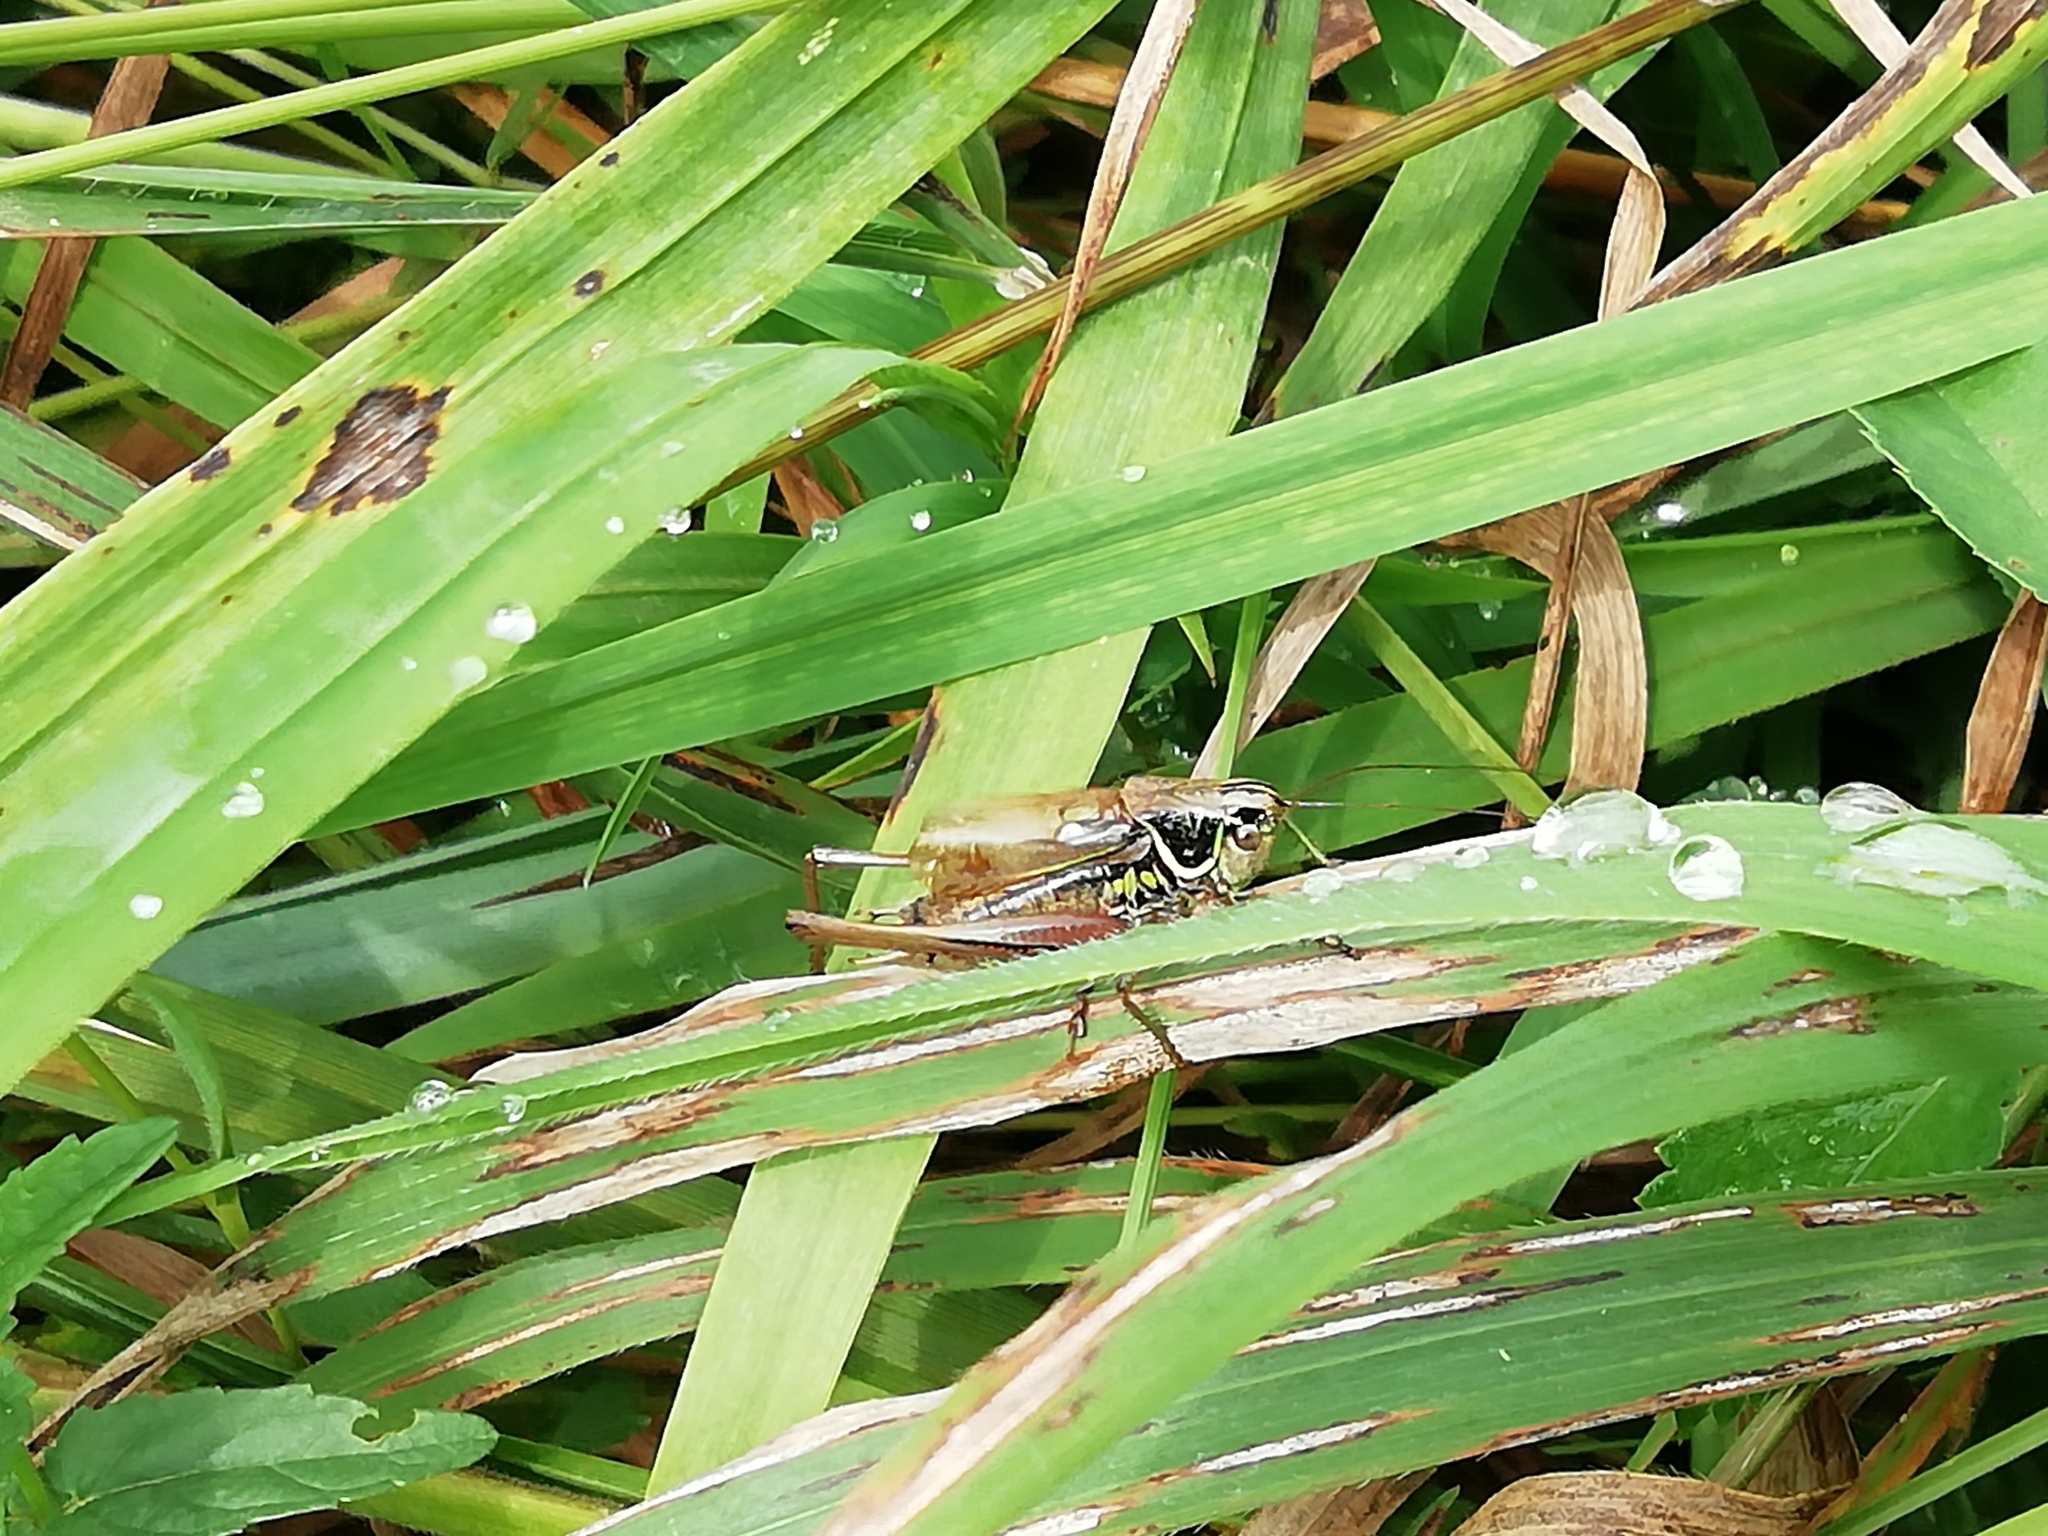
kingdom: Animalia
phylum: Arthropoda
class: Insecta
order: Orthoptera
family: Tettigoniidae
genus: Roeseliana
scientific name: Roeseliana roeselii
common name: Roesel's bush cricket
